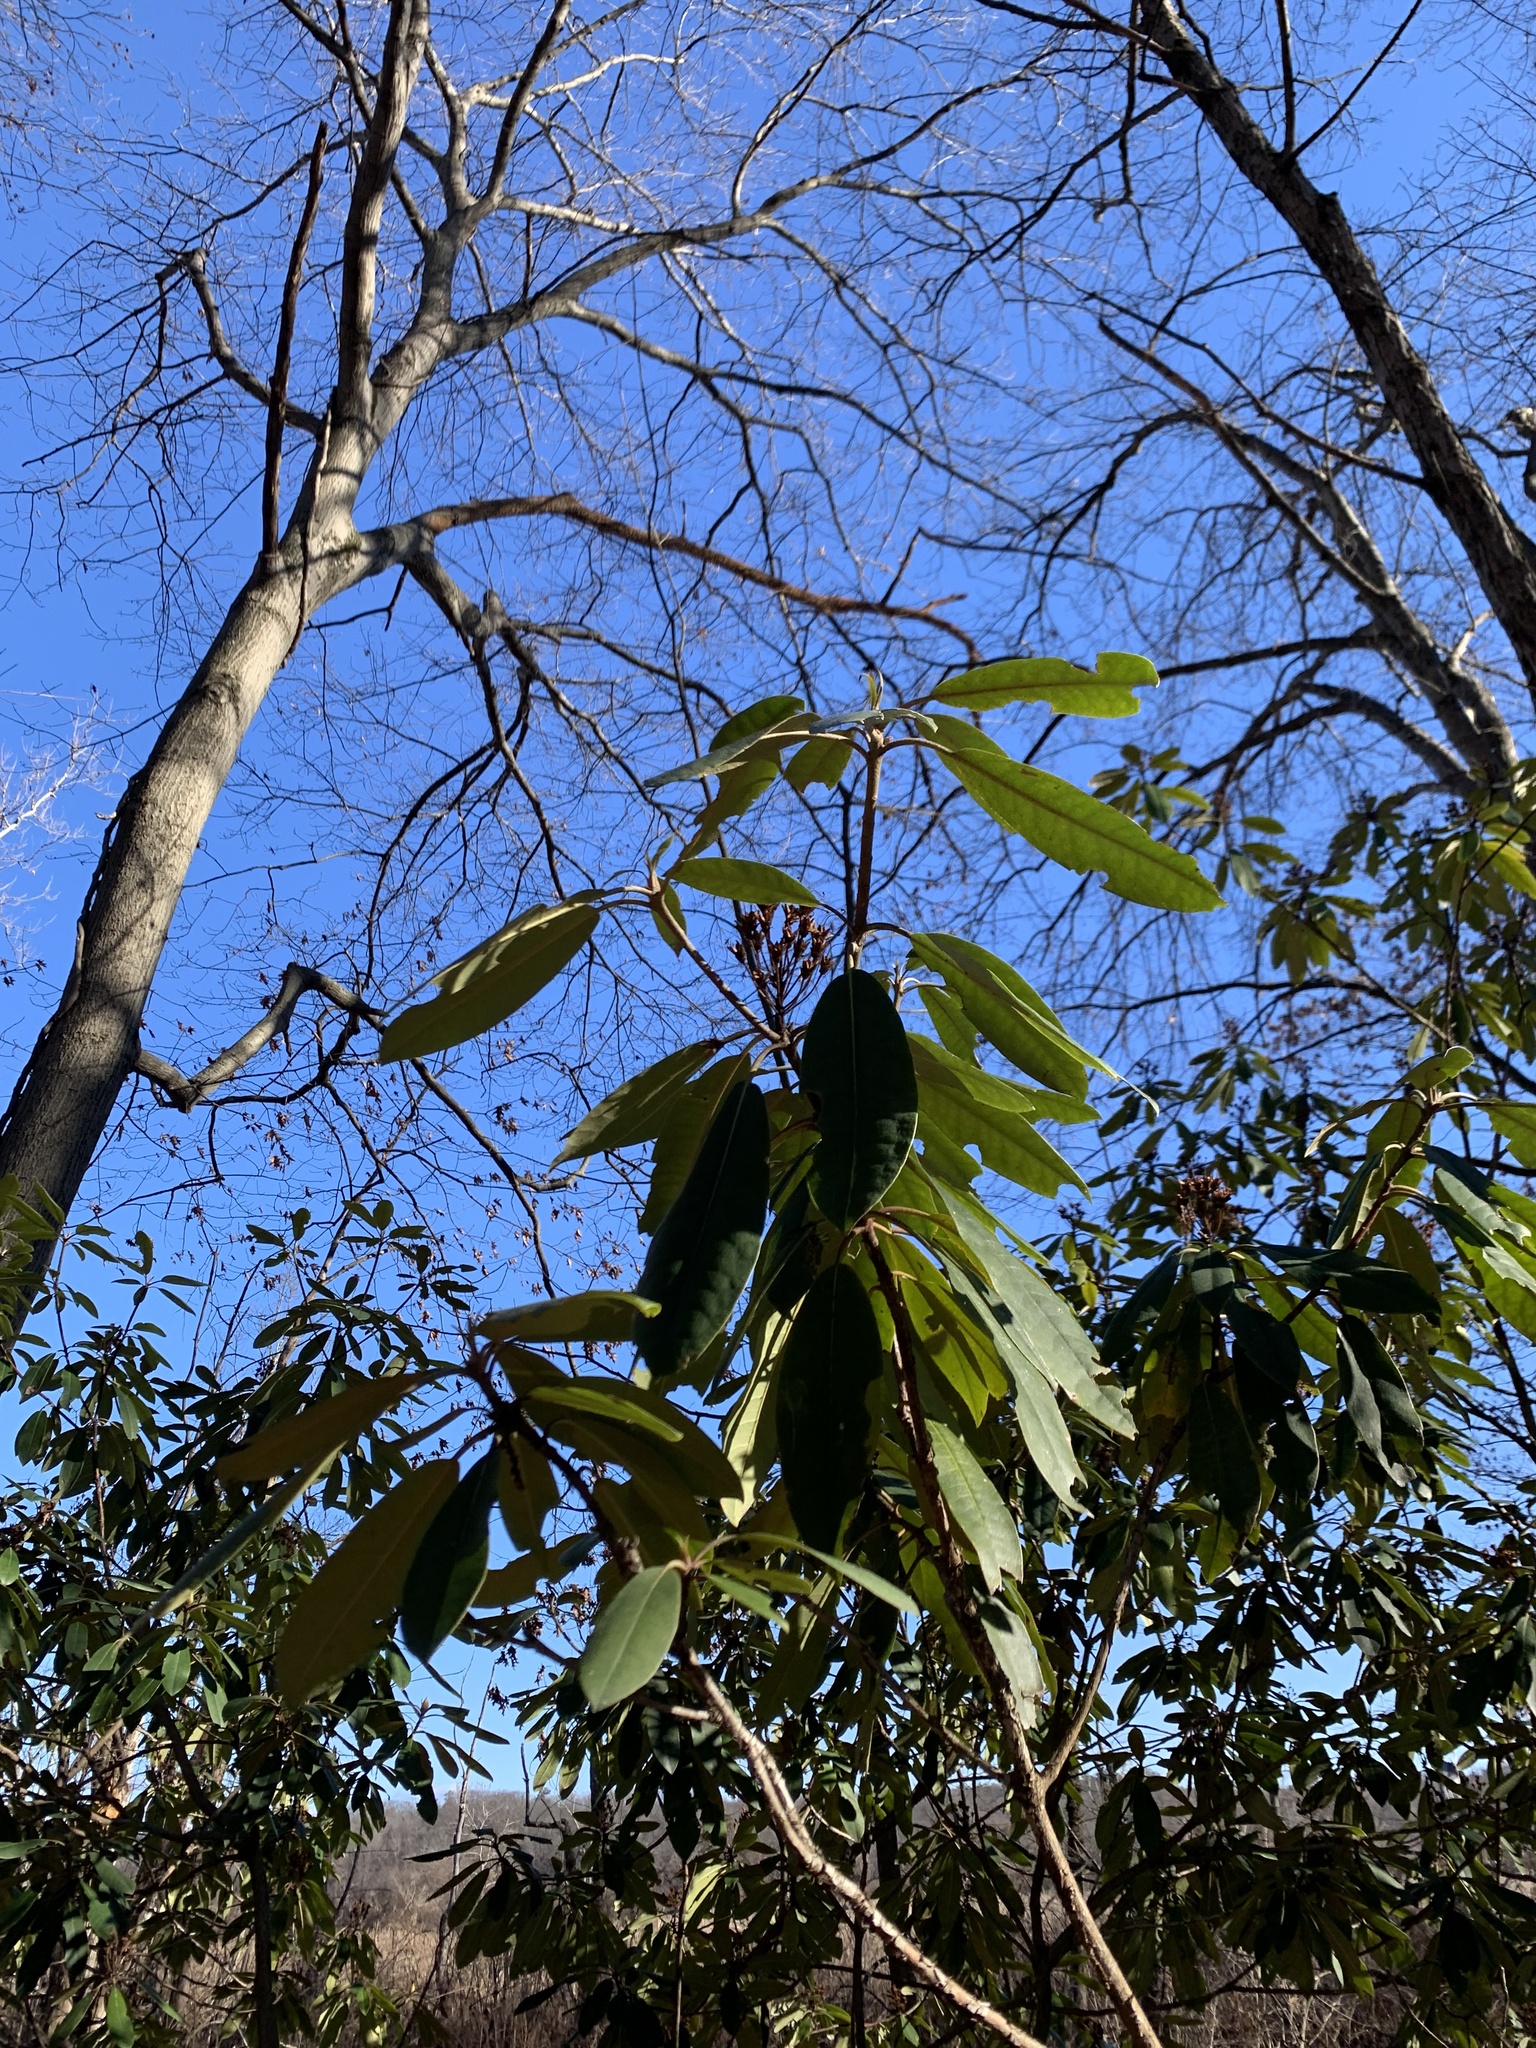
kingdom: Plantae
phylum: Tracheophyta
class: Magnoliopsida
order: Ericales
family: Ericaceae
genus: Rhododendron
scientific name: Rhododendron maximum
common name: Great rhododendron
